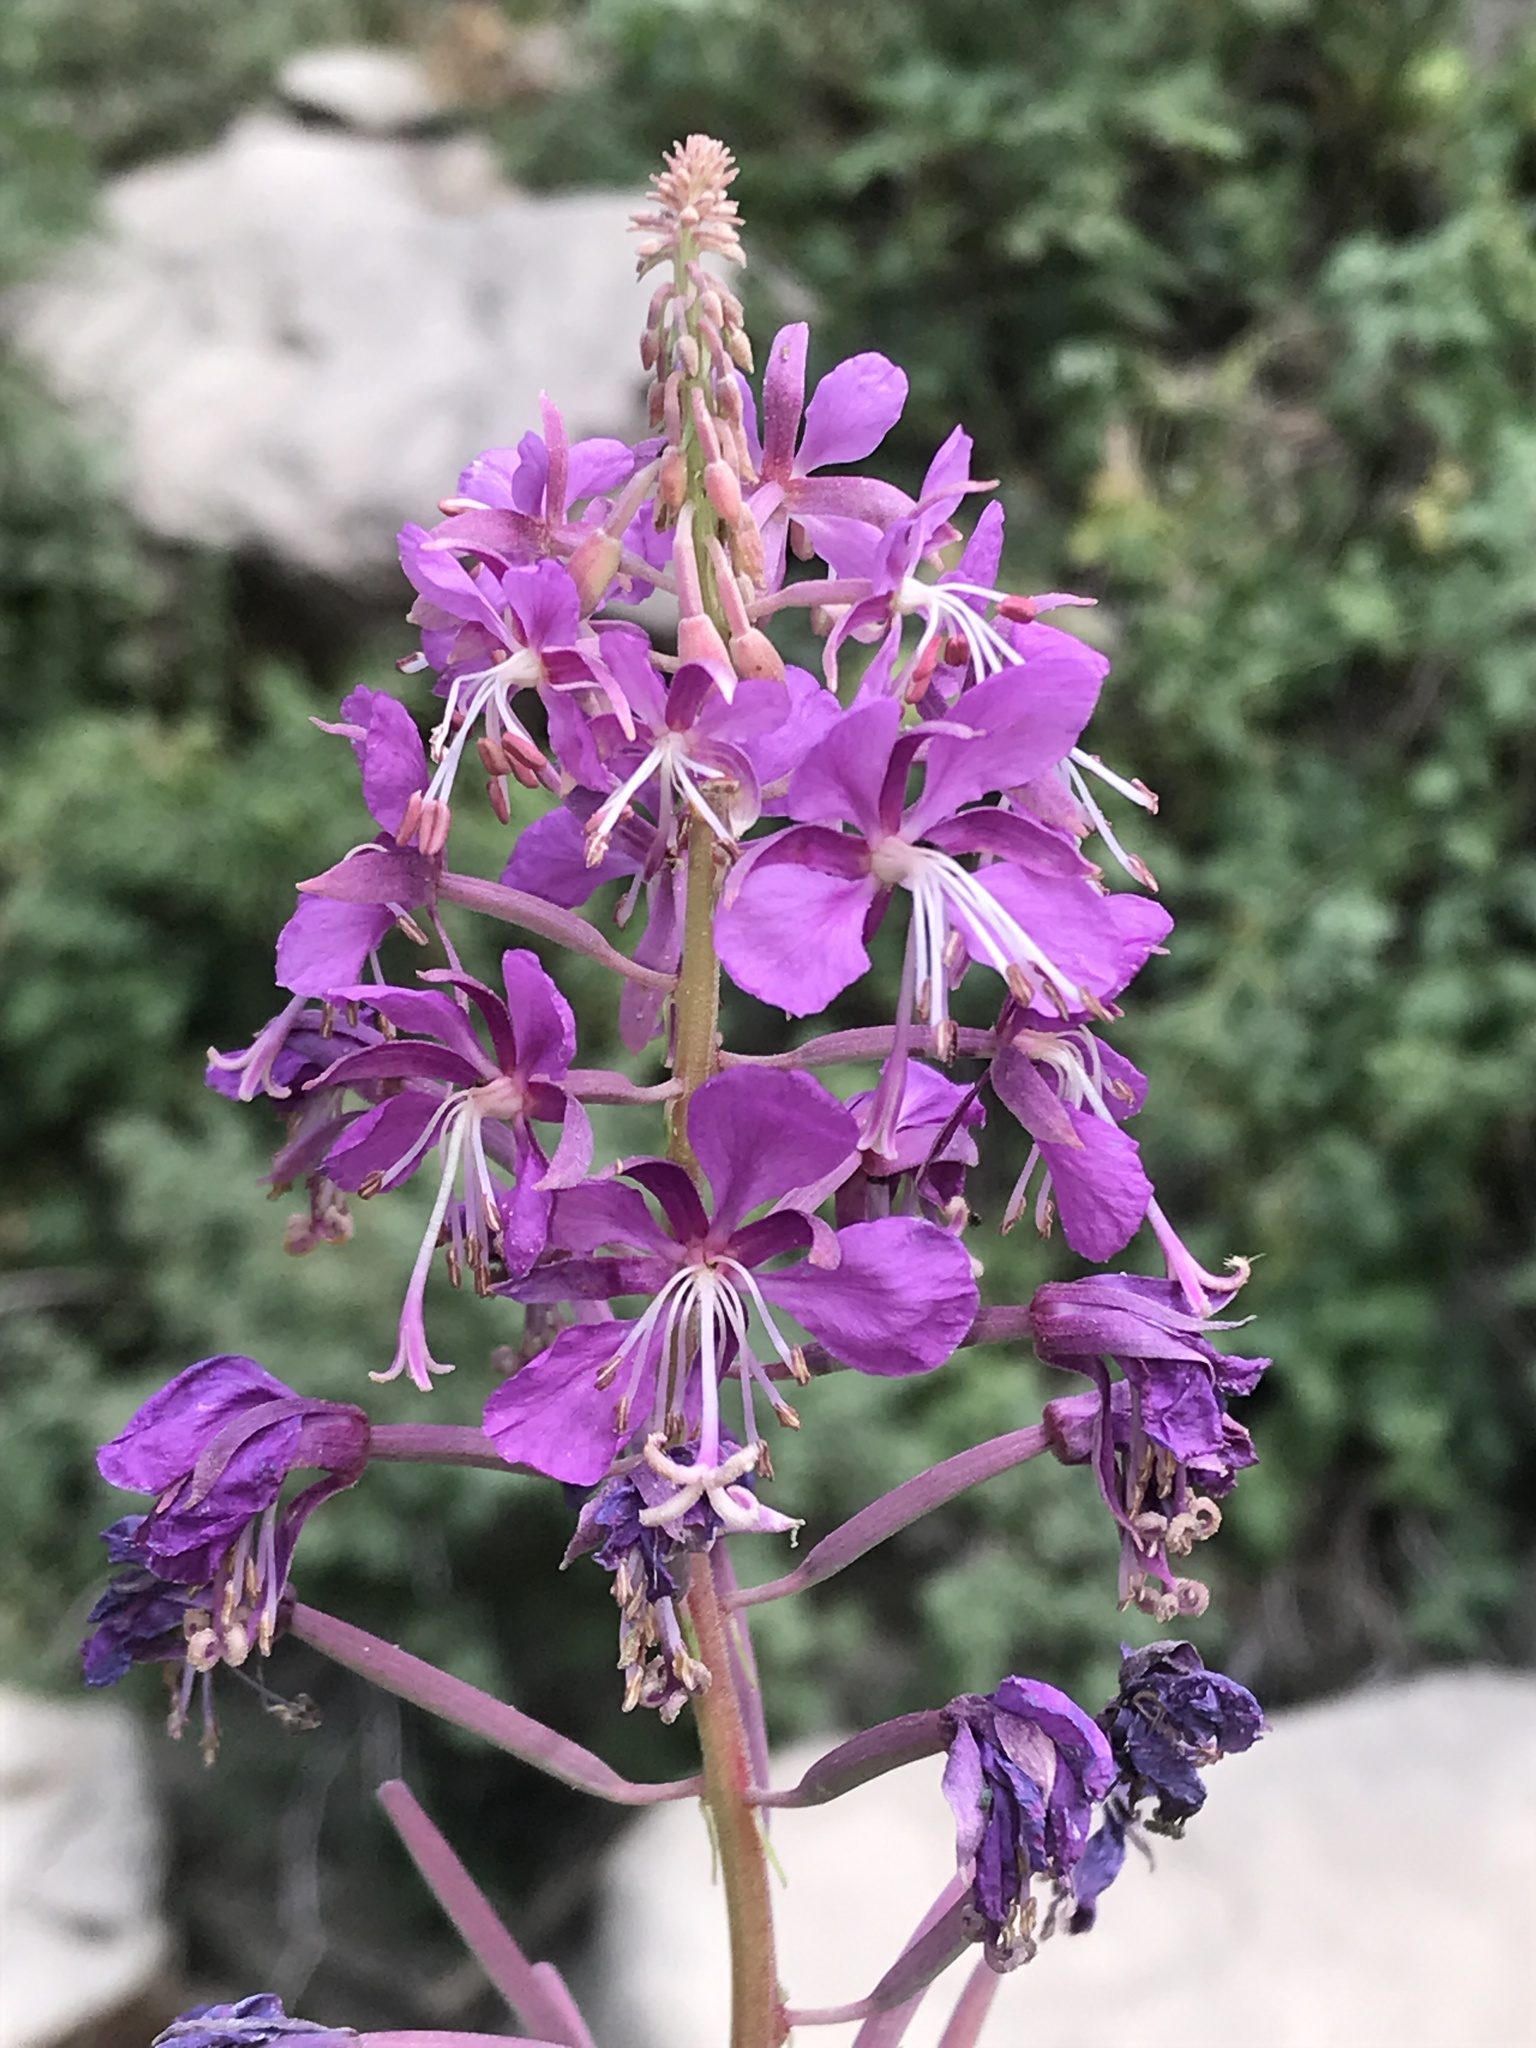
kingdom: Plantae
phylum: Tracheophyta
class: Magnoliopsida
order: Myrtales
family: Onagraceae
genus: Chamaenerion
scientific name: Chamaenerion angustifolium
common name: Fireweed
